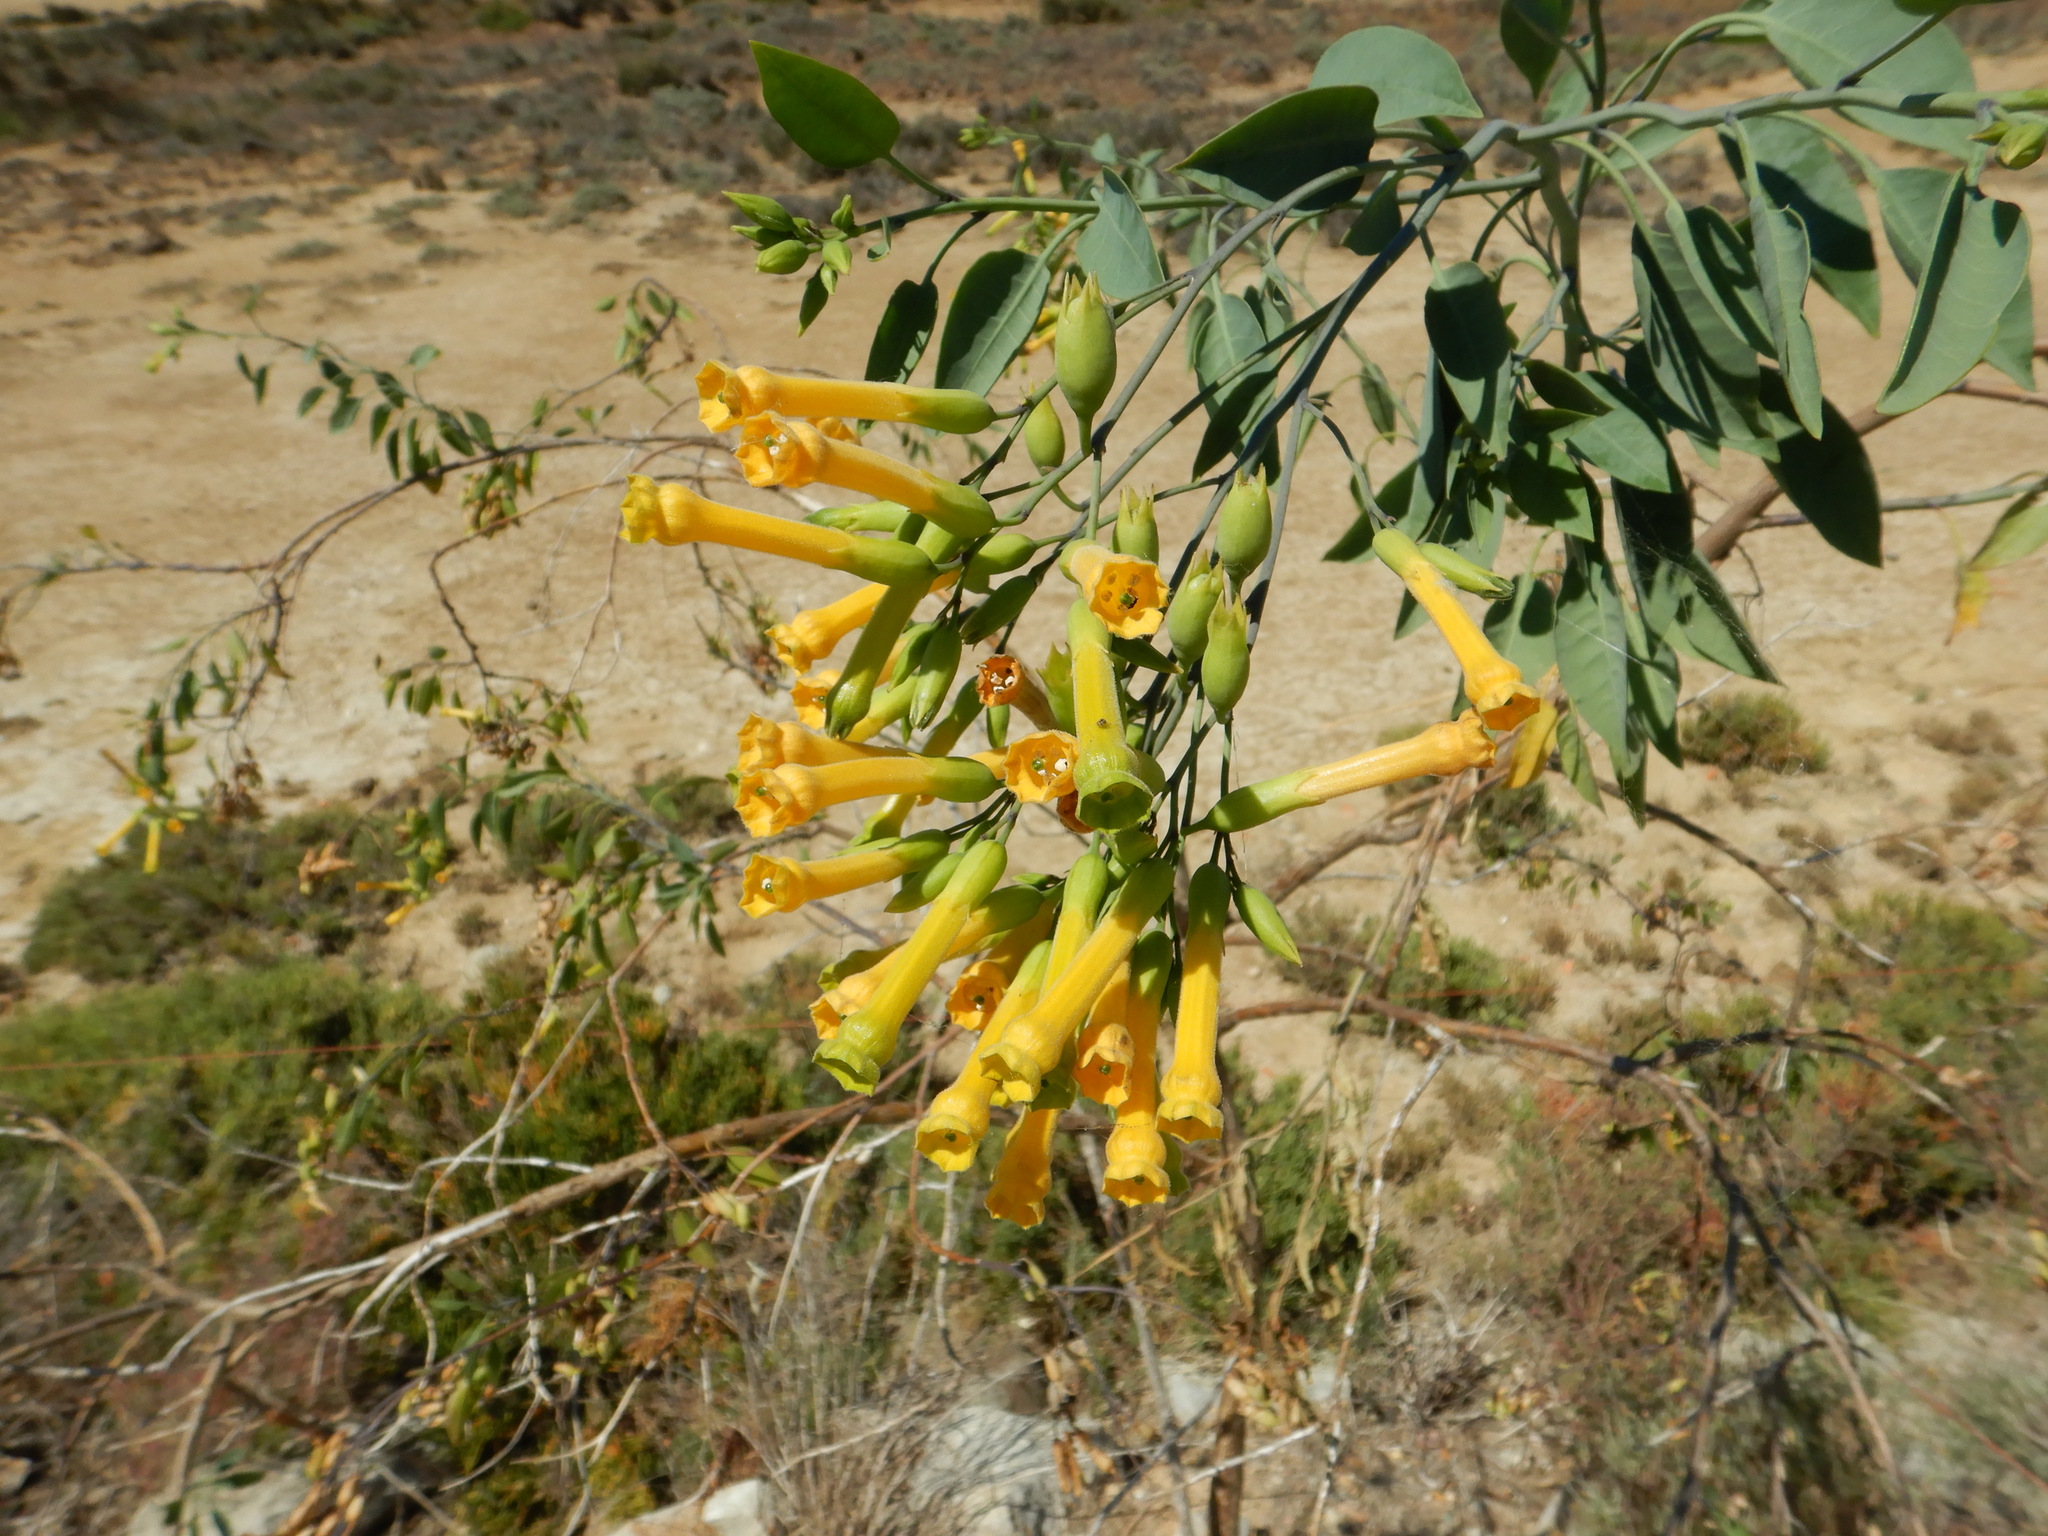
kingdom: Plantae
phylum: Tracheophyta
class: Magnoliopsida
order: Solanales
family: Solanaceae
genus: Nicotiana
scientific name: Nicotiana glauca
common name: Tree tobacco
